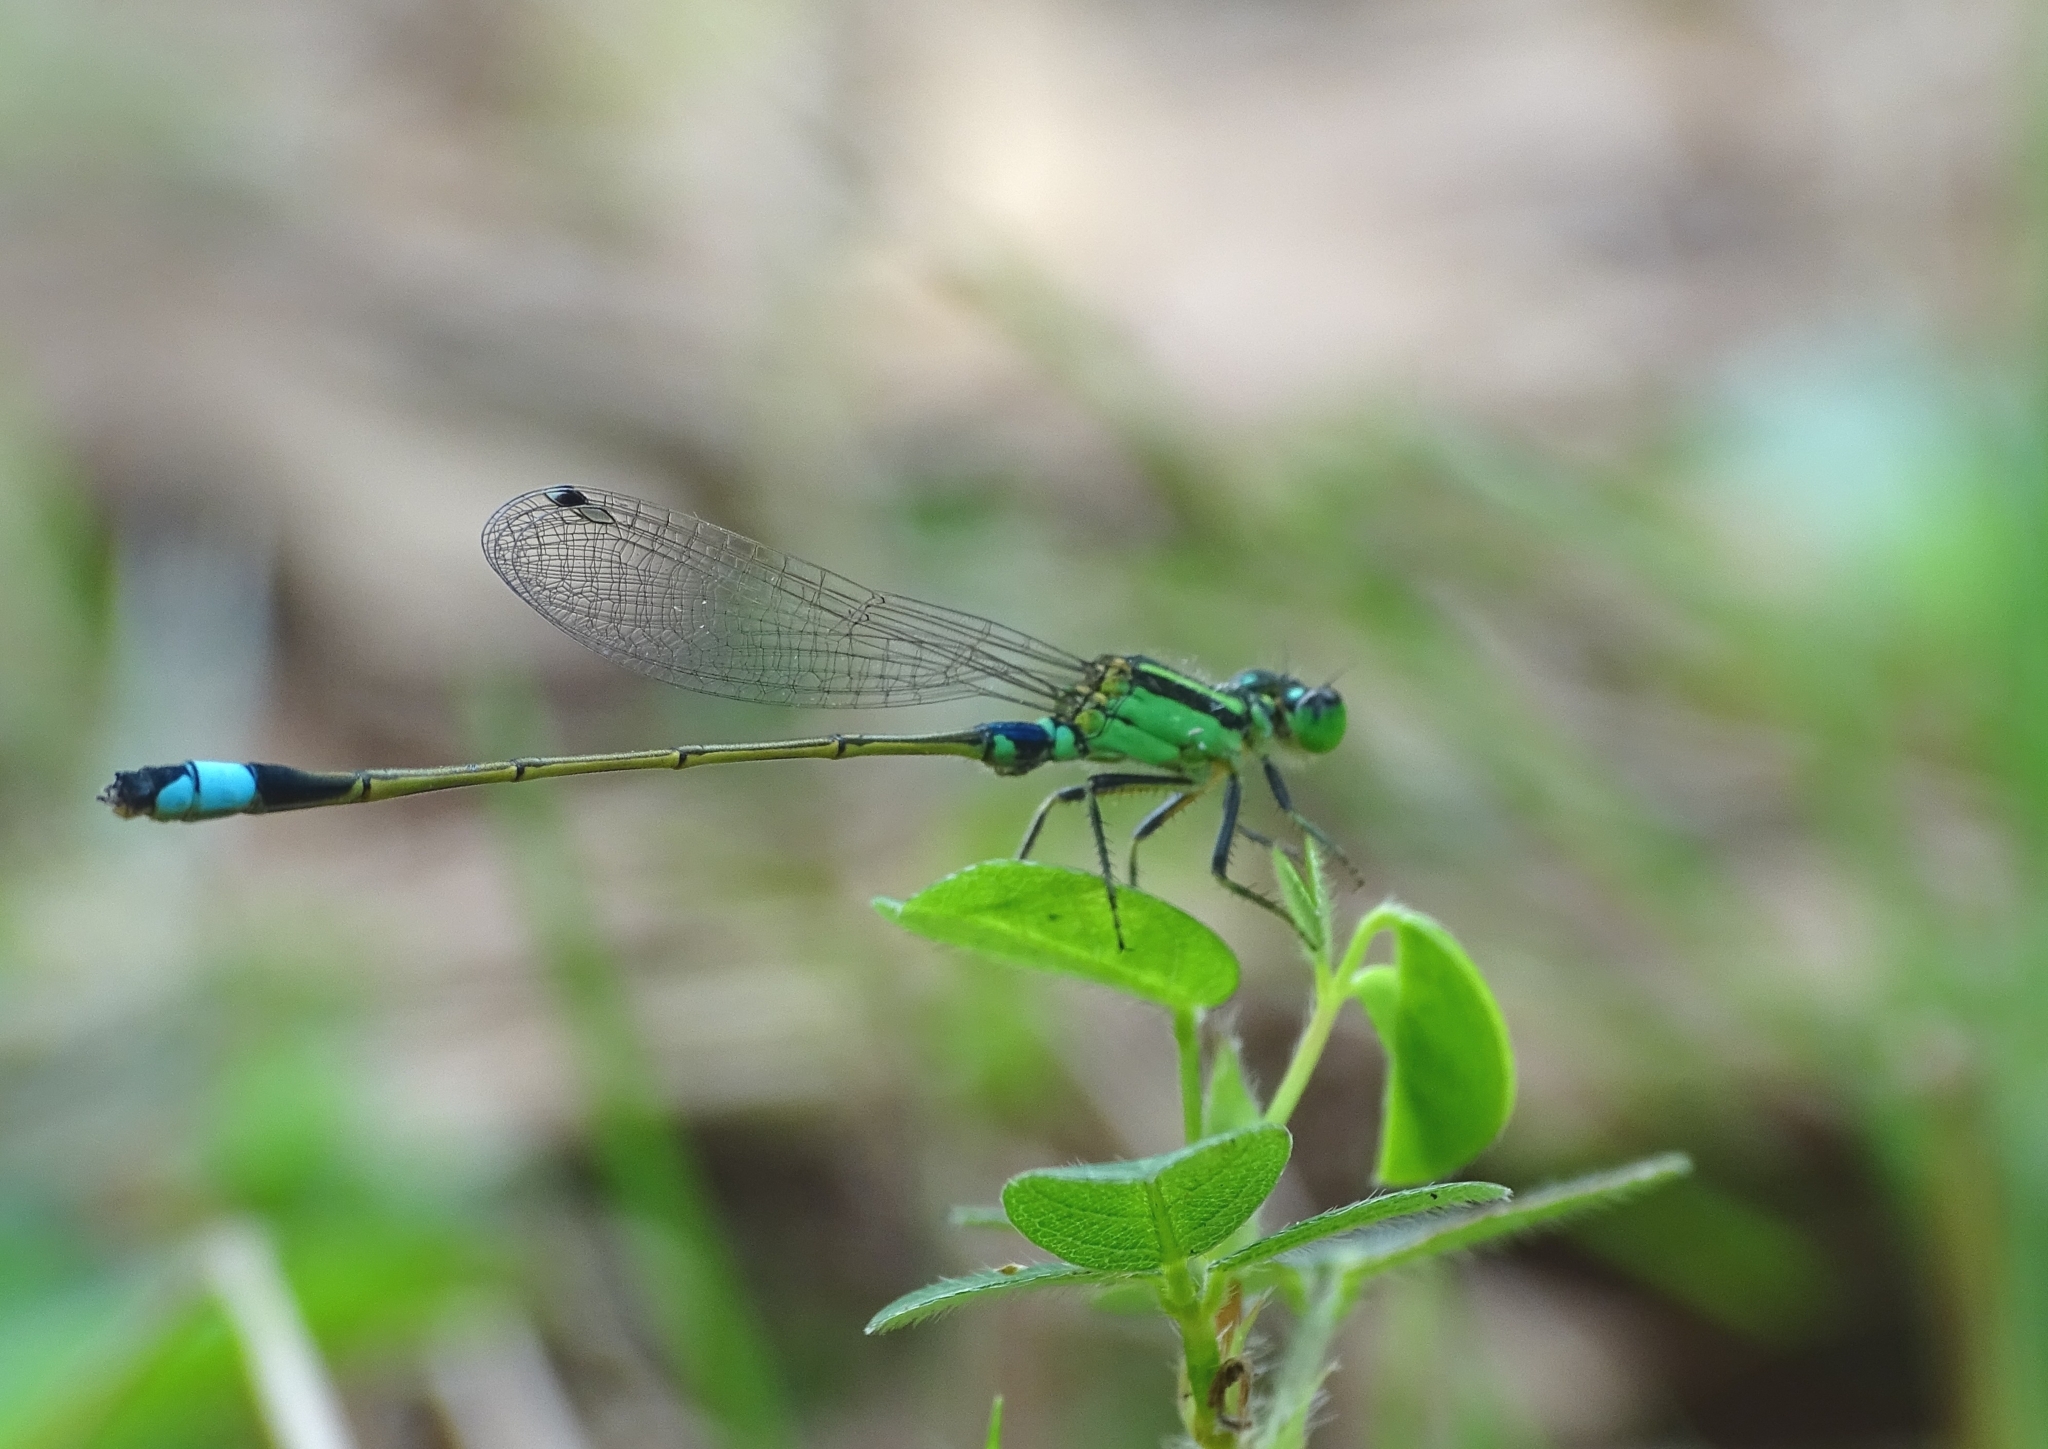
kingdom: Animalia
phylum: Arthropoda
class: Insecta
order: Odonata
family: Coenagrionidae
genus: Ischnura
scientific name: Ischnura senegalensis
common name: Tropical bluetail
